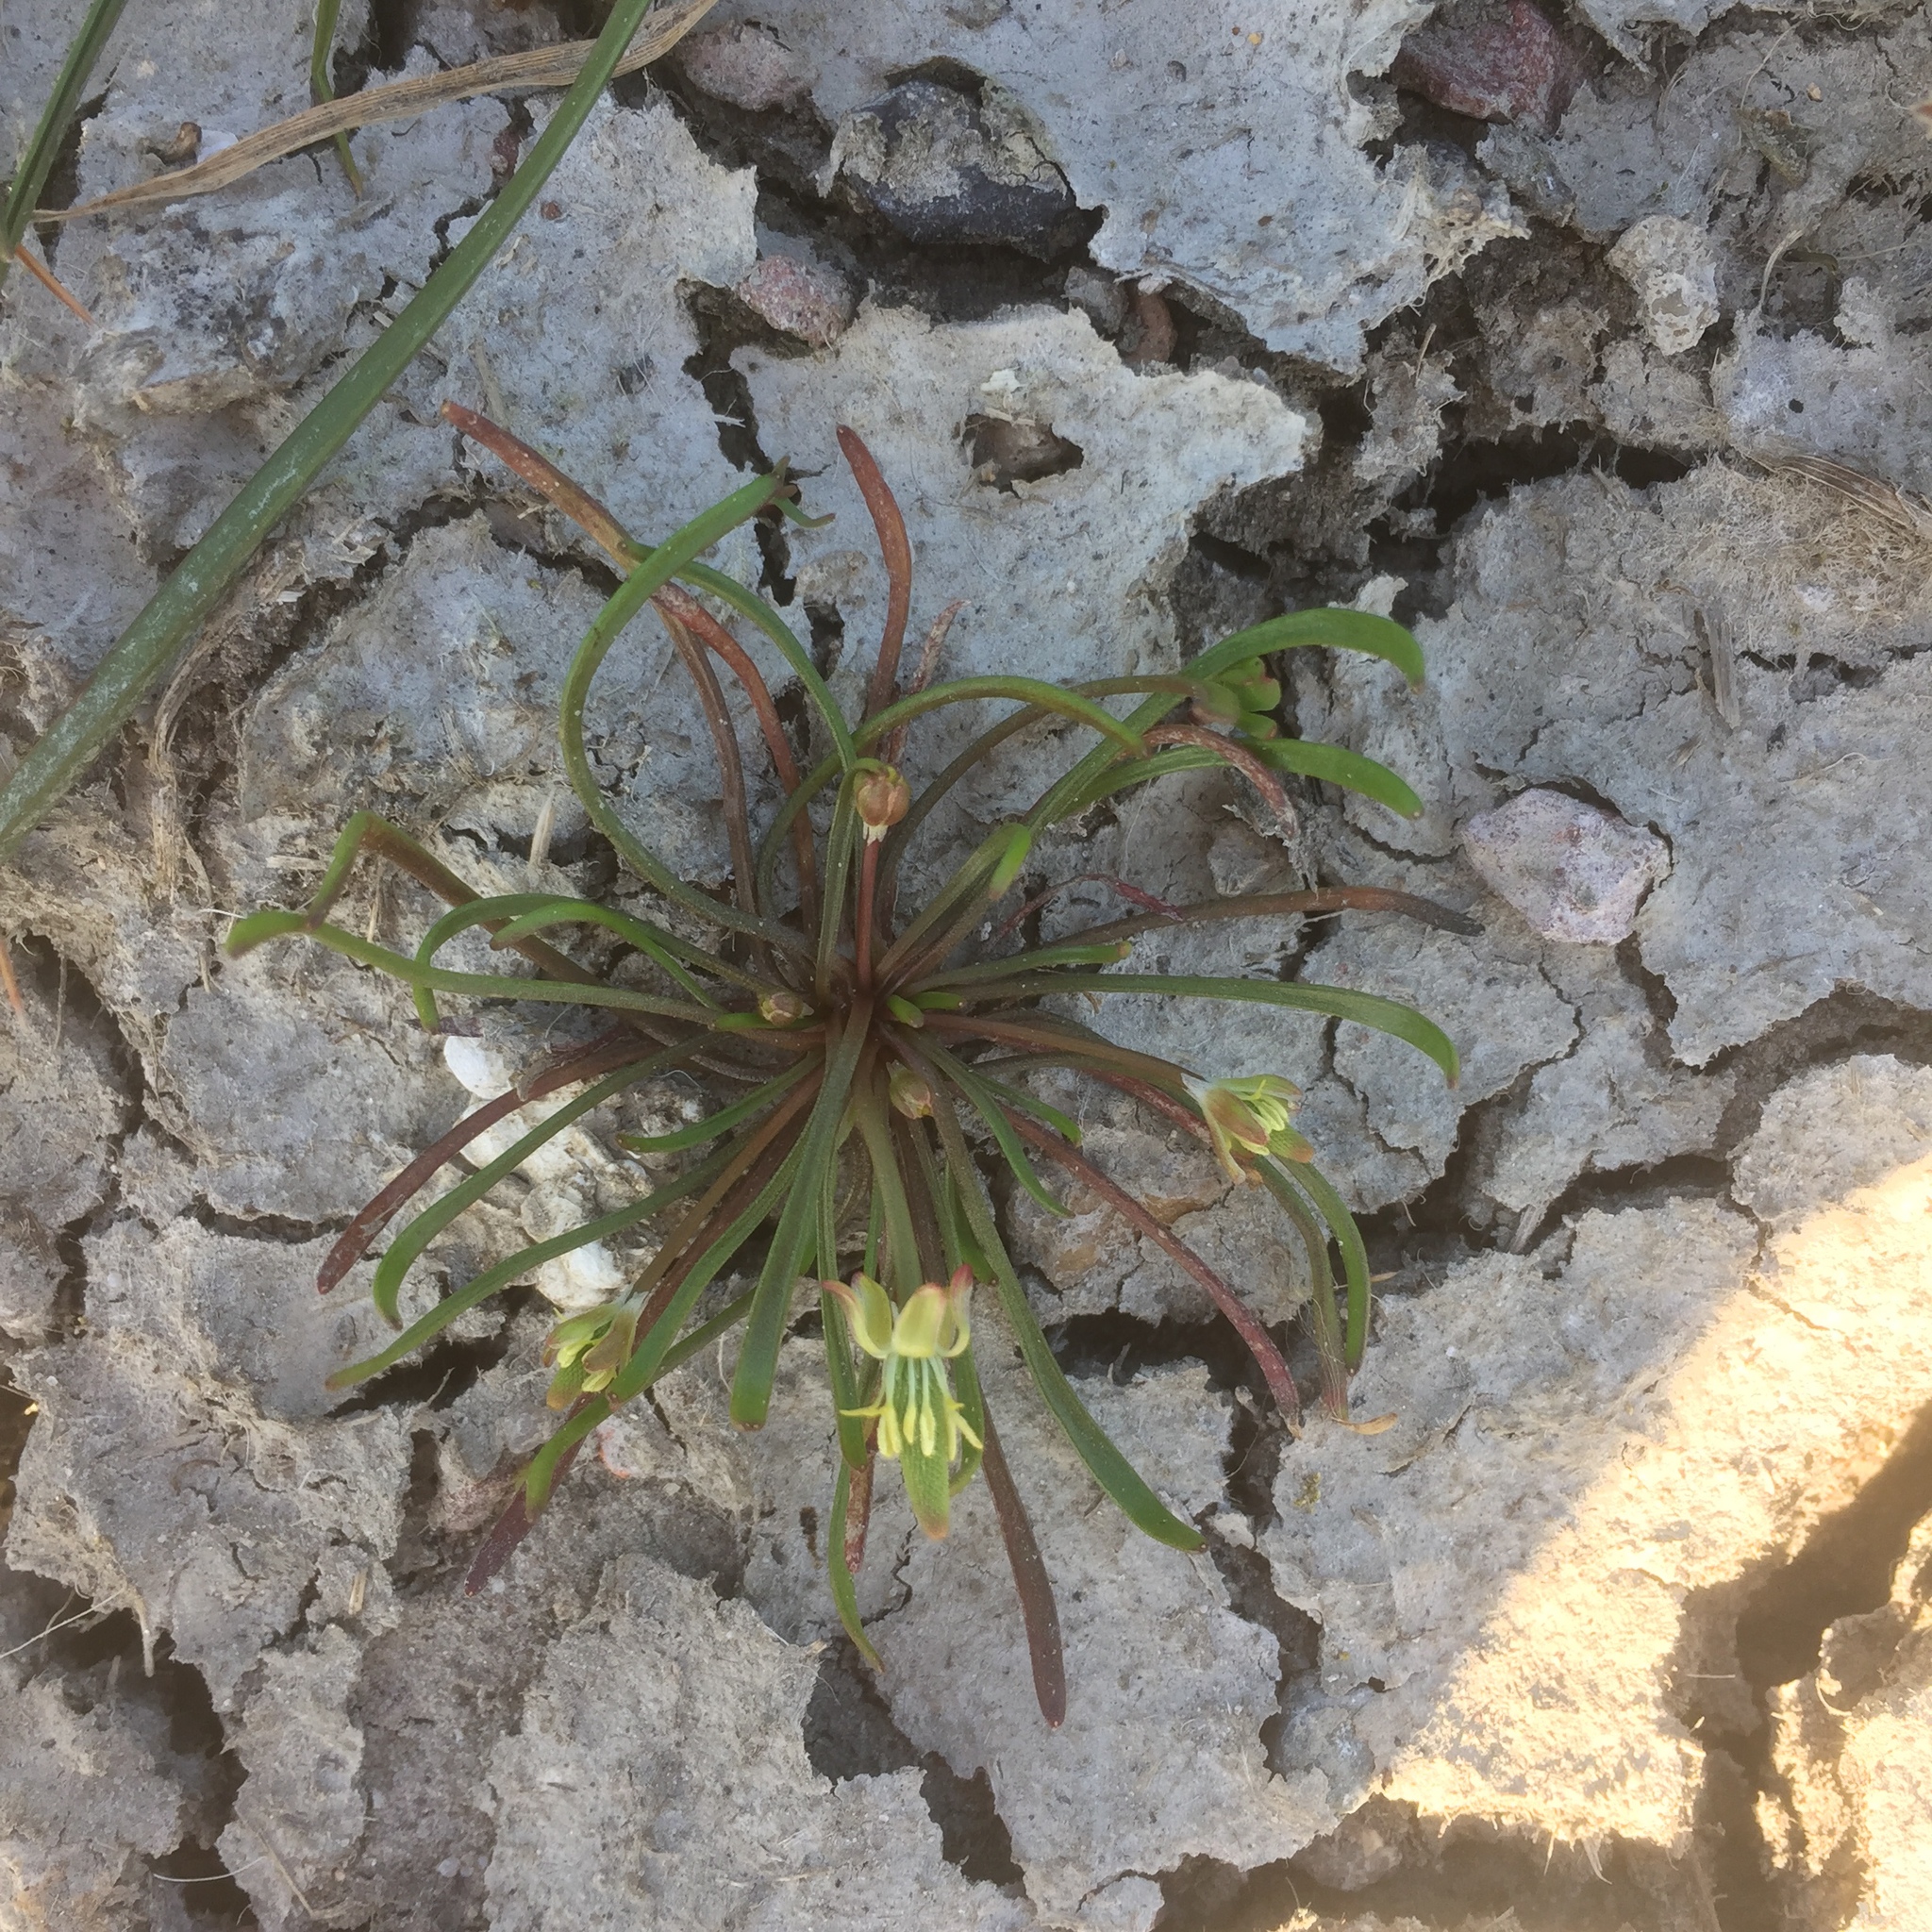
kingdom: Plantae
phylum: Tracheophyta
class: Magnoliopsida
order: Ranunculales
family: Ranunculaceae
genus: Myosurus
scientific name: Myosurus minimus
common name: Mousetail
